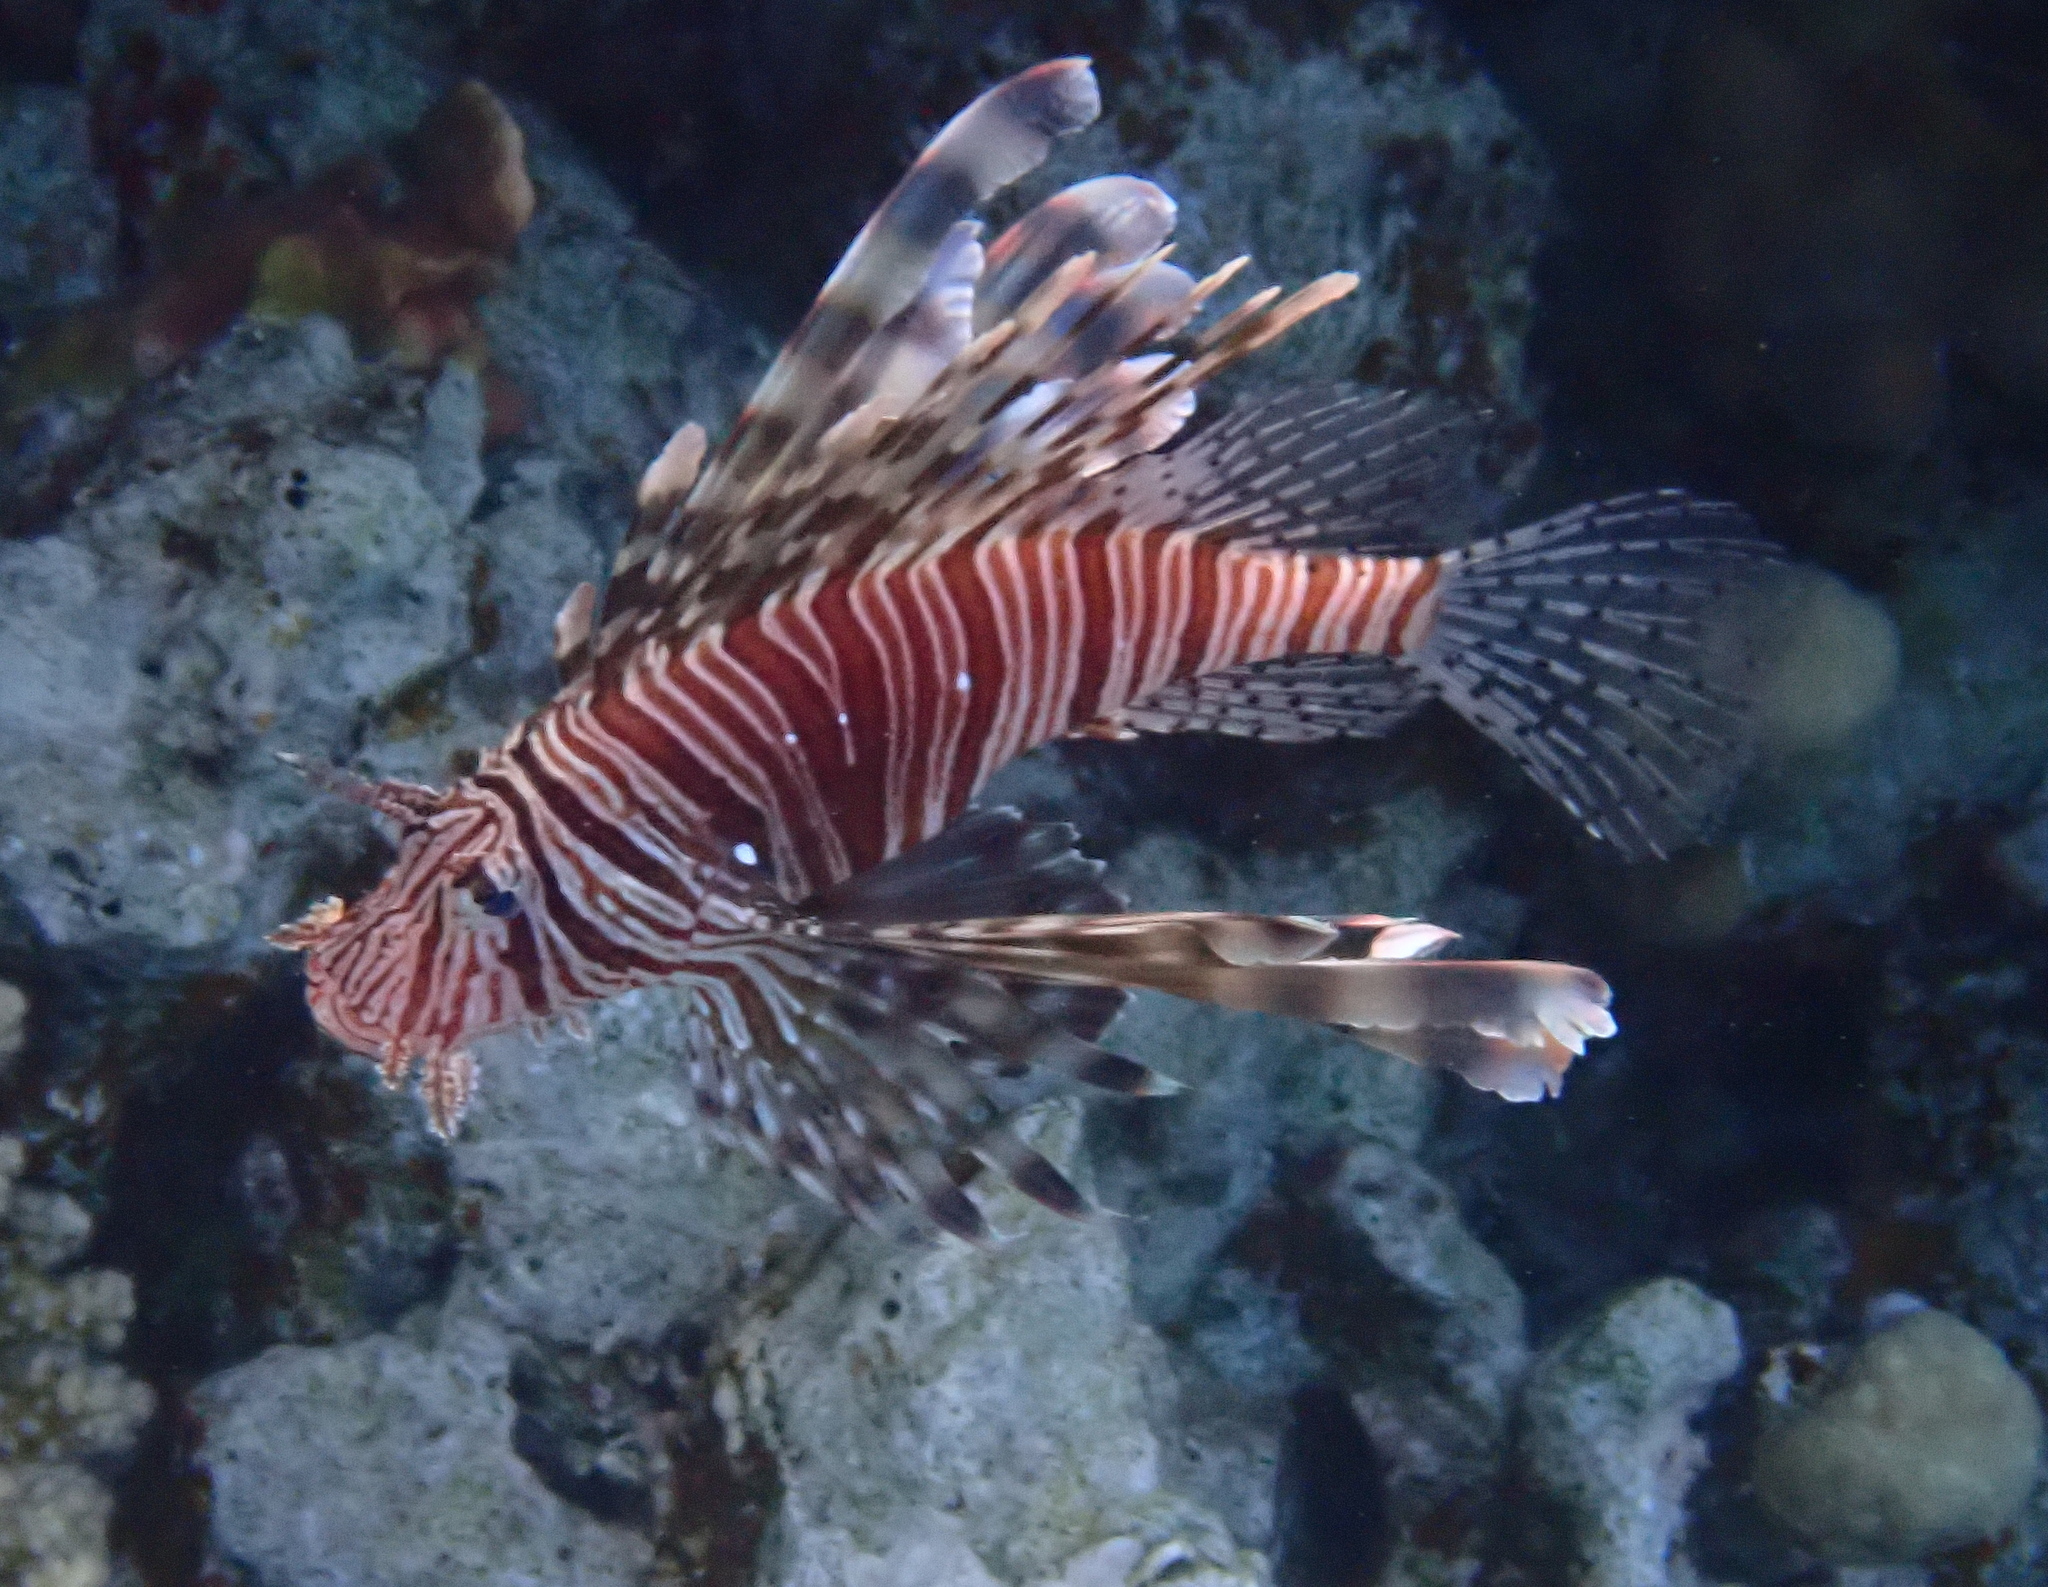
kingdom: Animalia
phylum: Chordata
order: Scorpaeniformes
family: Scorpaenidae
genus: Pterois
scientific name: Pterois miles
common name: Devil firefish
